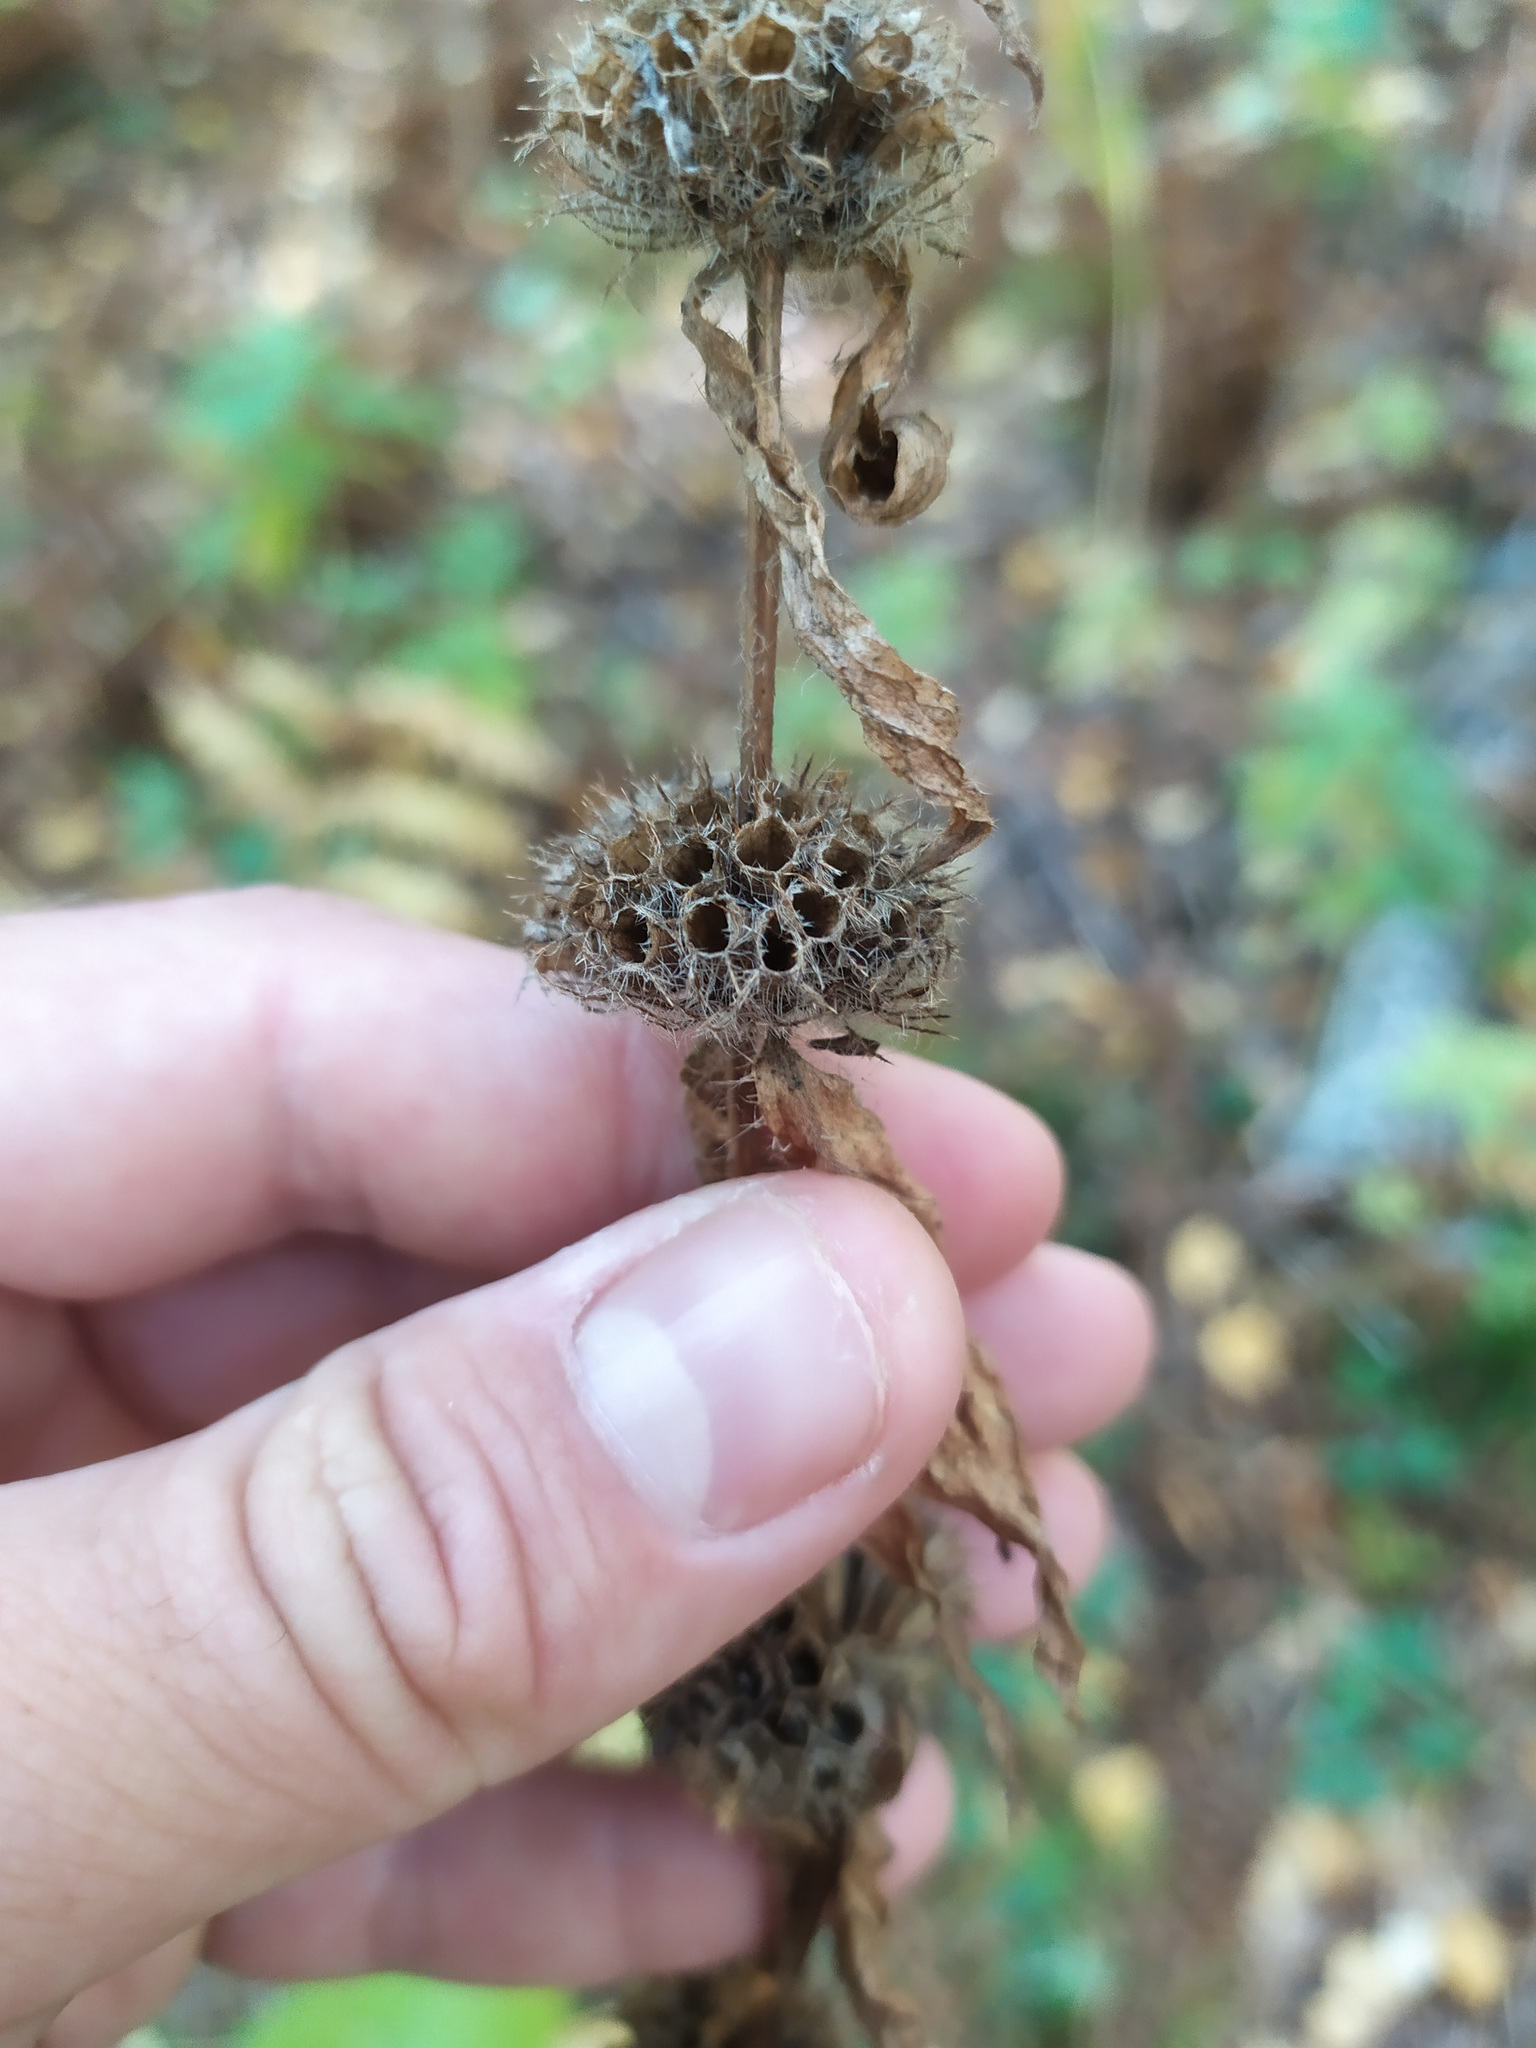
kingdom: Plantae
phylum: Tracheophyta
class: Magnoliopsida
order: Lamiales
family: Lamiaceae
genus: Phlomoides
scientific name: Phlomoides tuberosa
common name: Tuberous jerusalem sage
